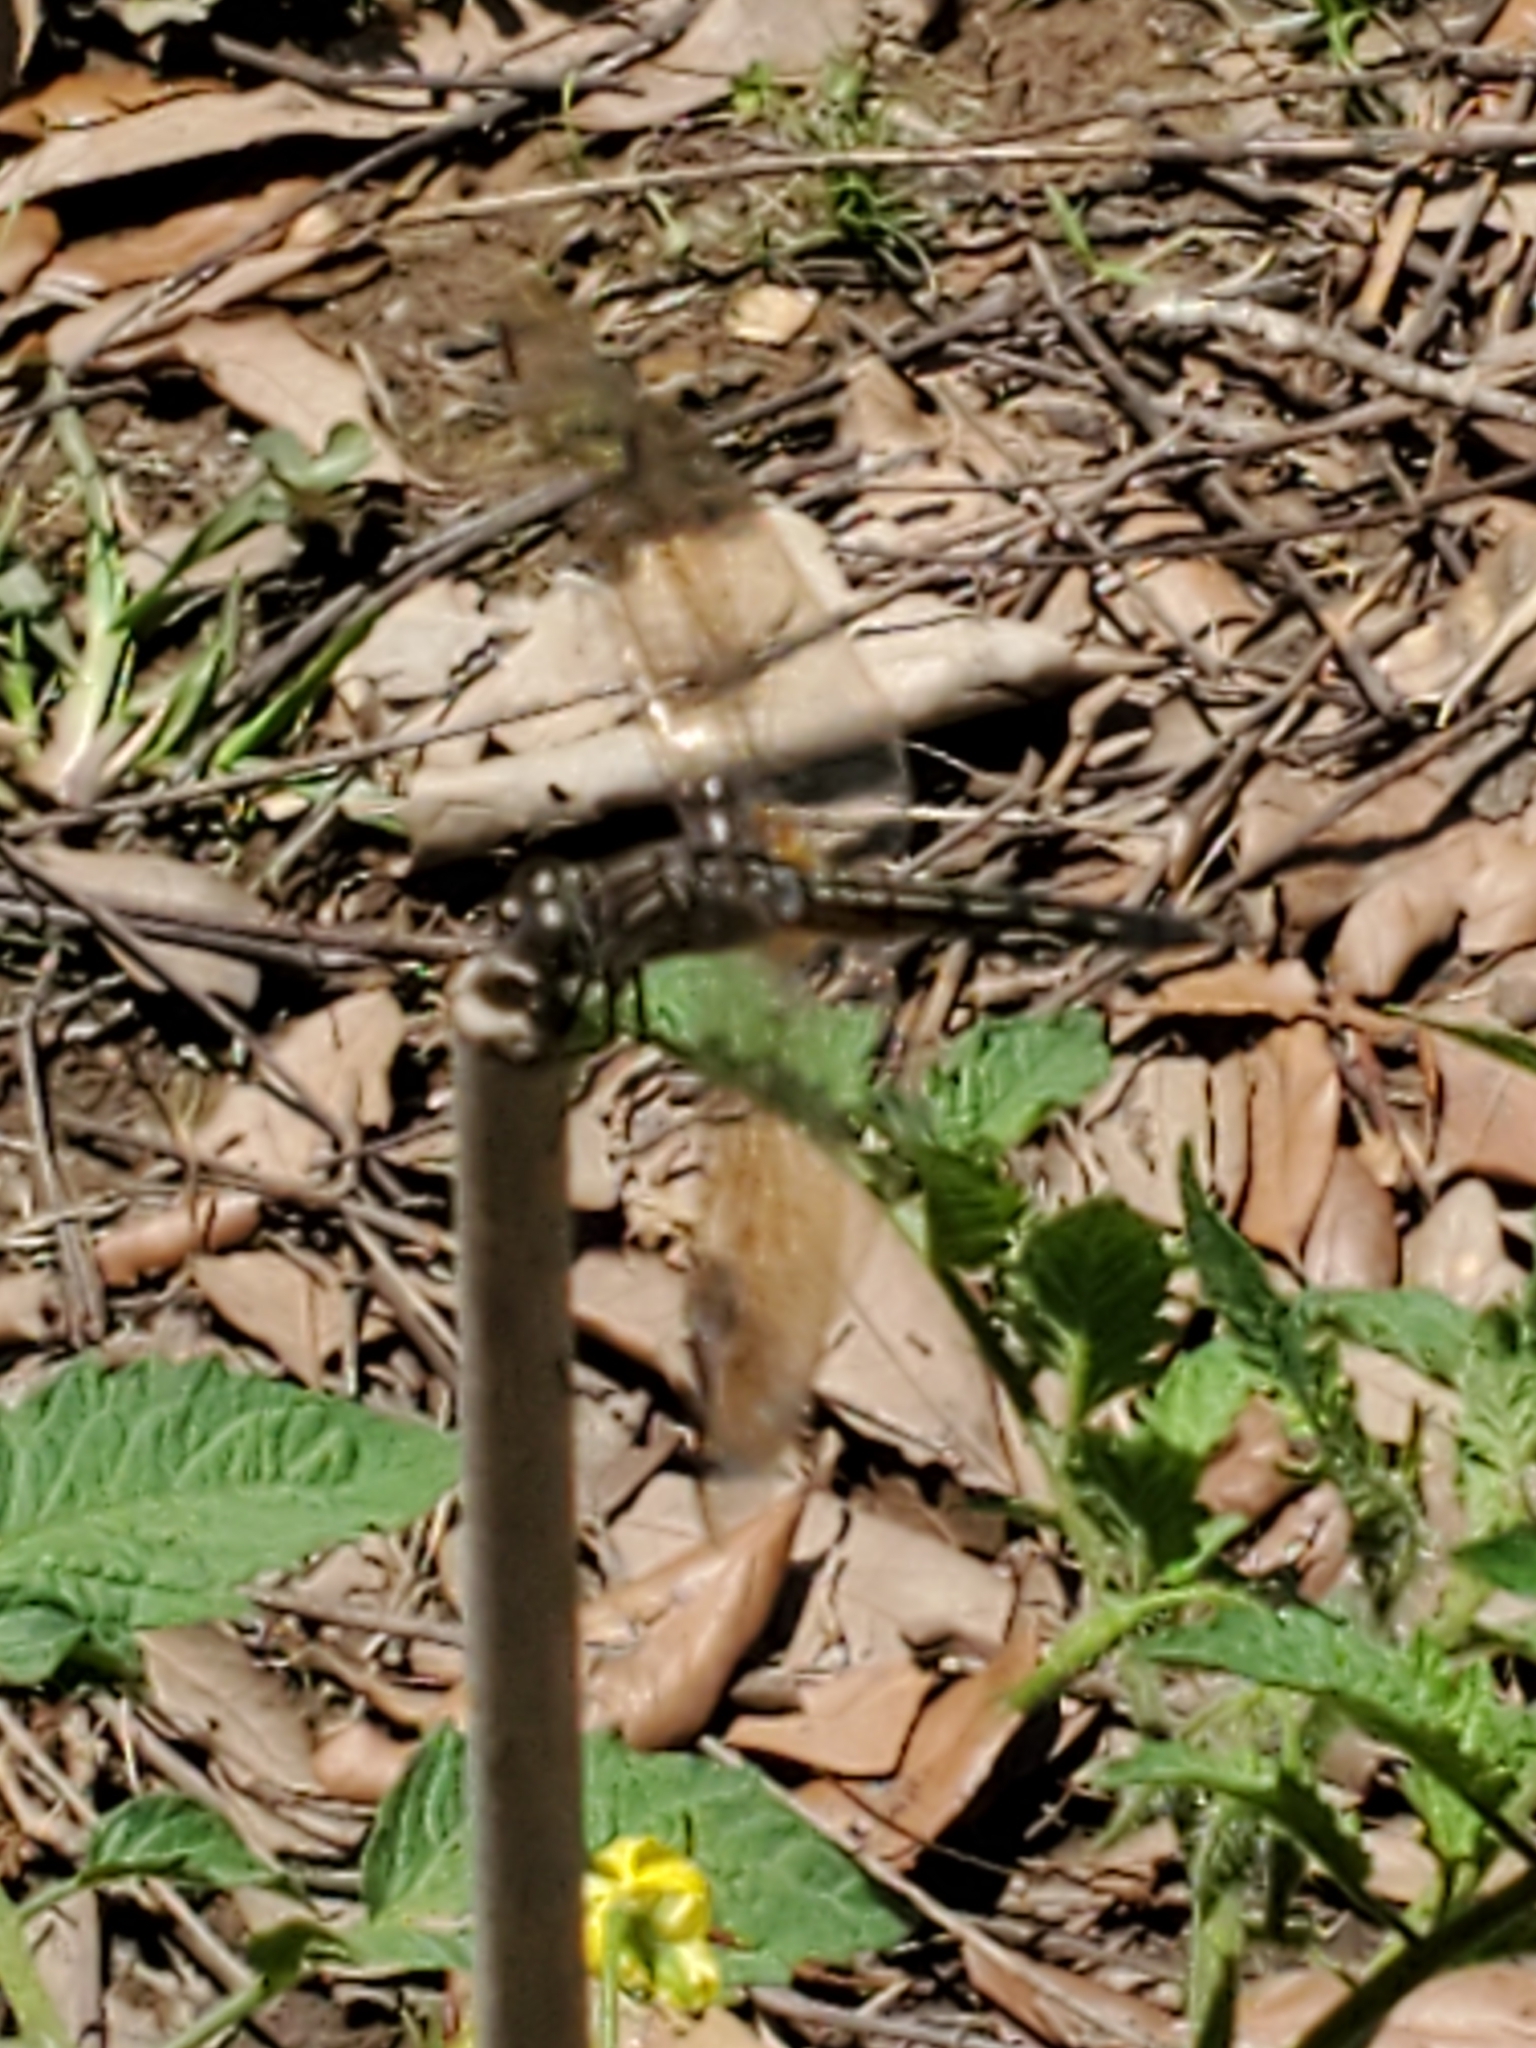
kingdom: Animalia
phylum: Arthropoda
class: Insecta
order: Odonata
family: Libellulidae
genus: Pachydiplax
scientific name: Pachydiplax longipennis
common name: Blue dasher
